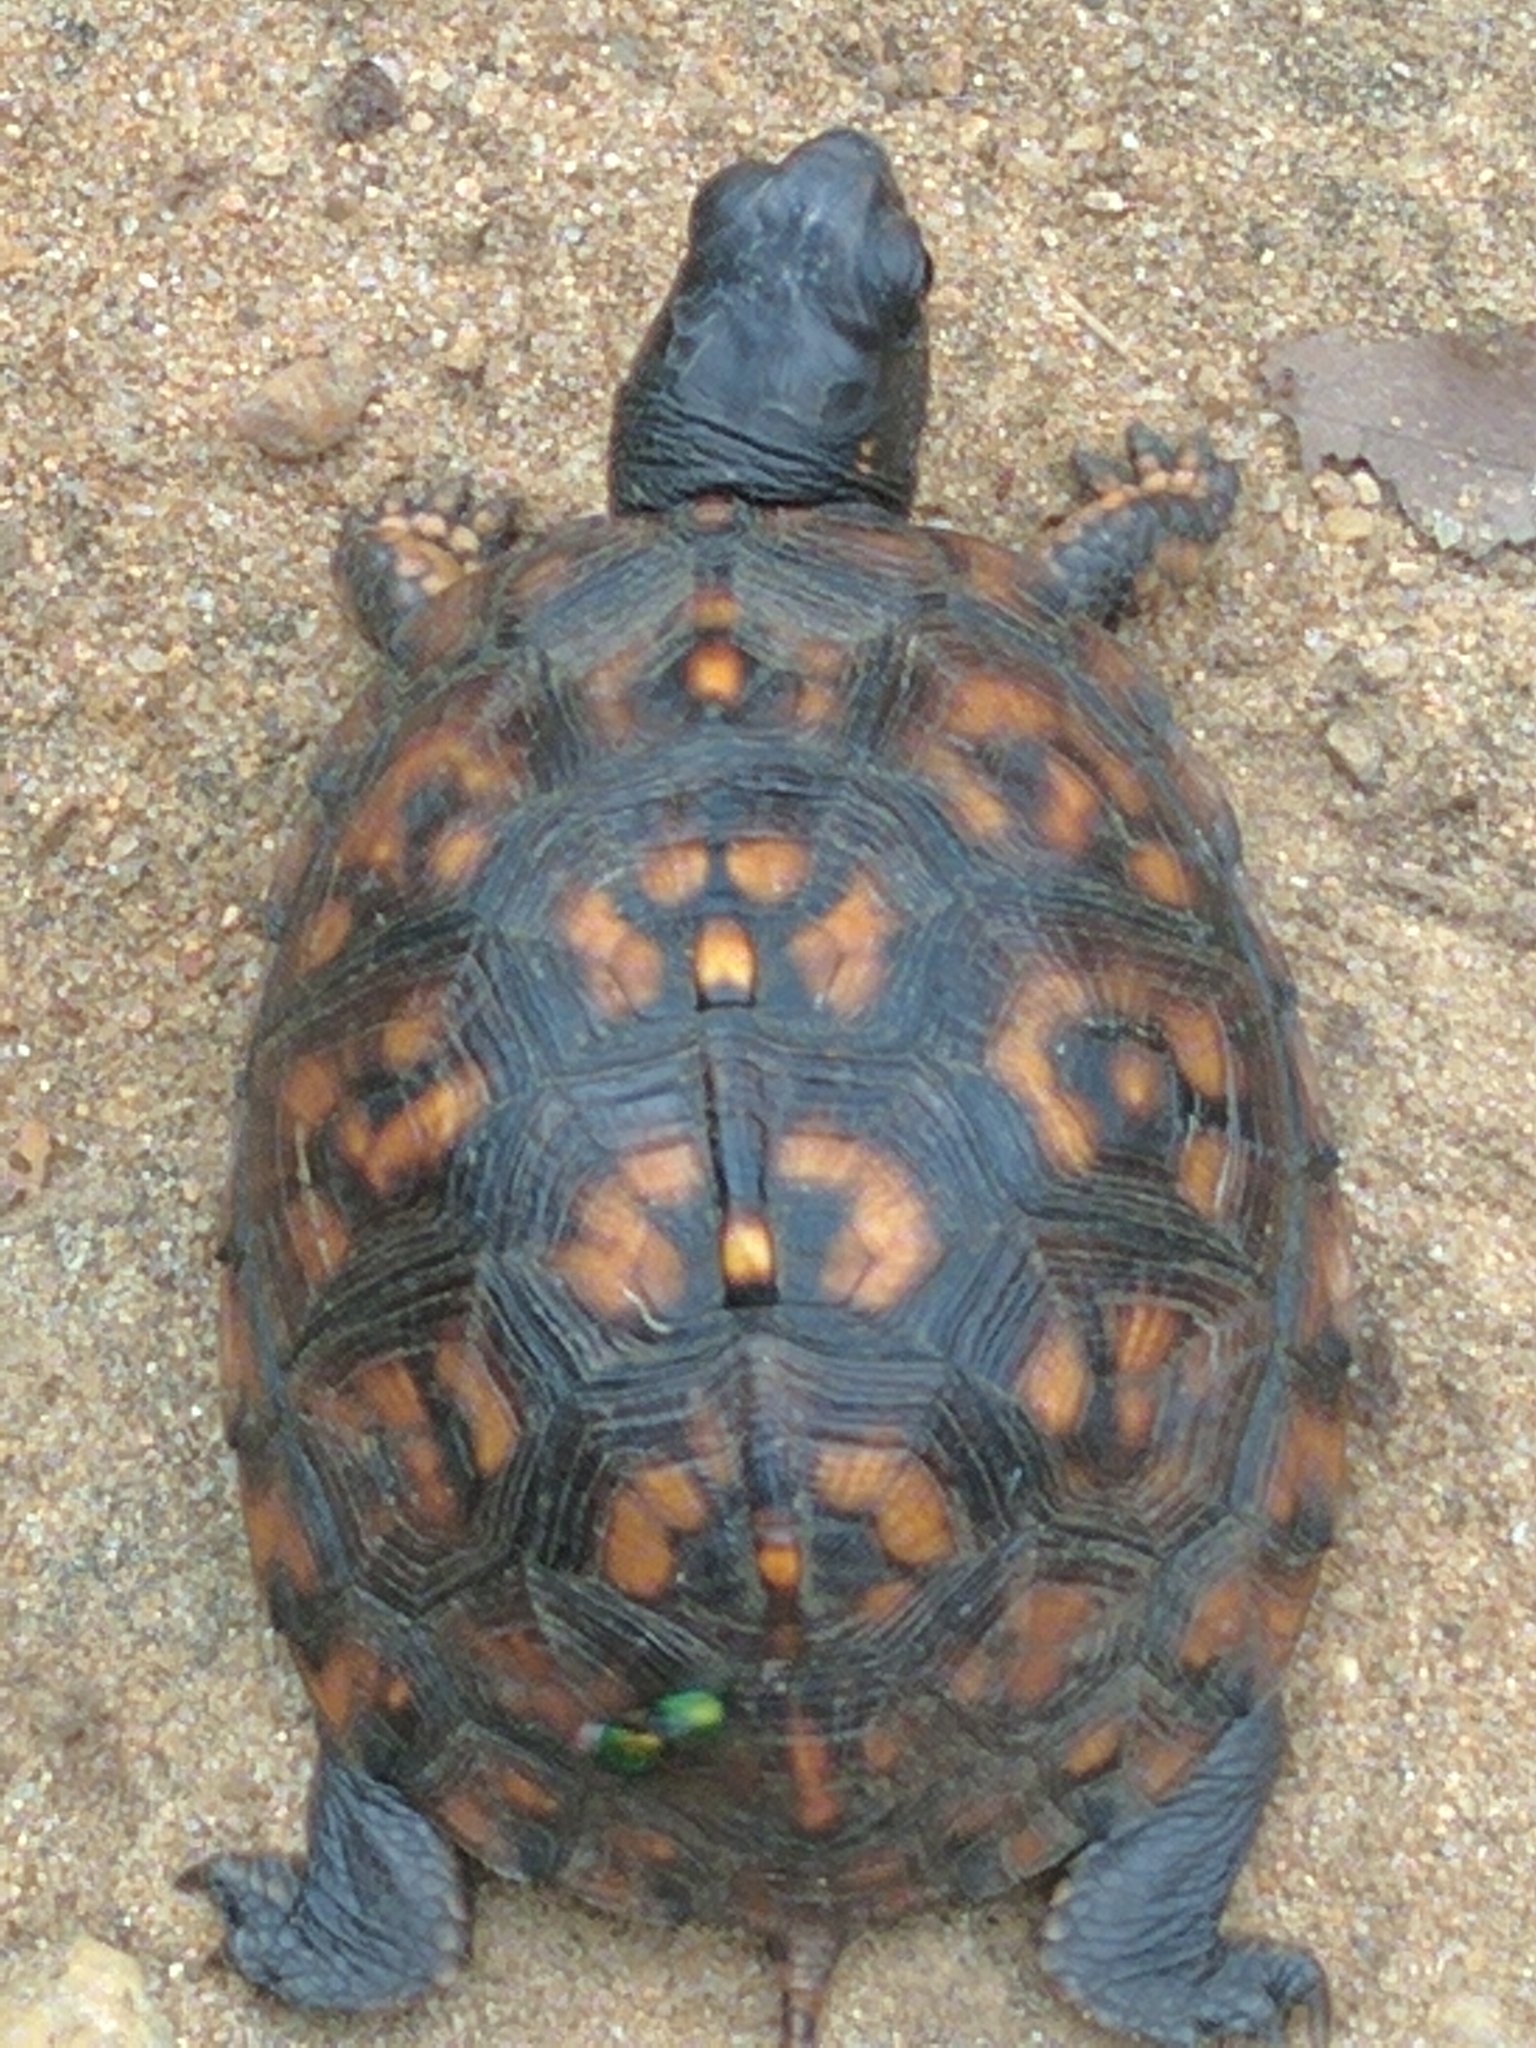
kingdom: Animalia
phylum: Chordata
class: Testudines
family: Emydidae
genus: Terrapene
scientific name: Terrapene carolina
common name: Common box turtle
